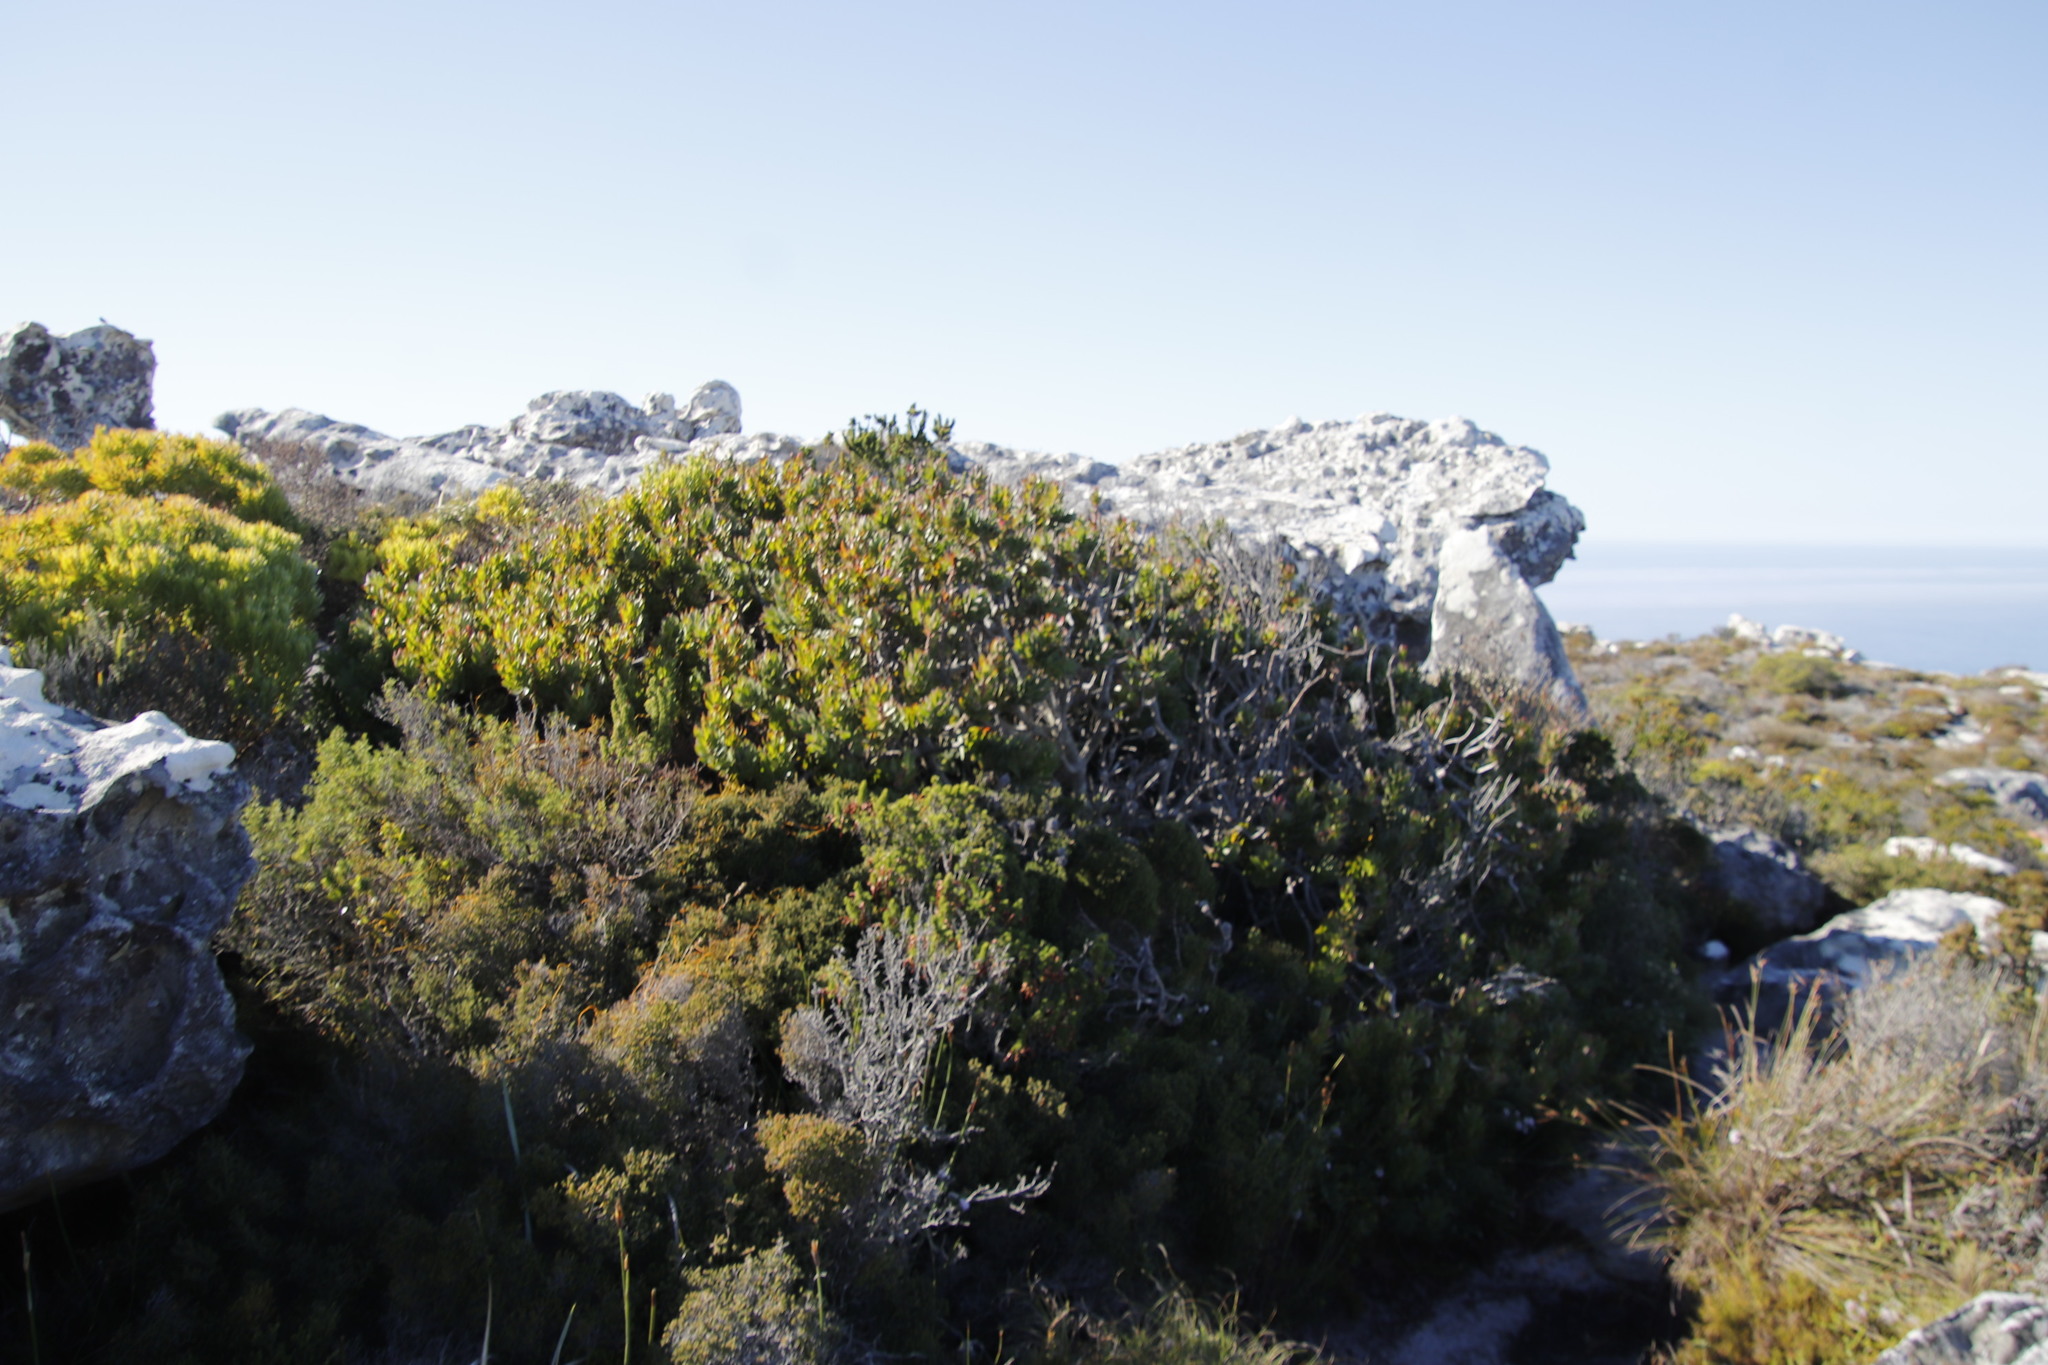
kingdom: Plantae
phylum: Tracheophyta
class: Magnoliopsida
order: Proteales
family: Proteaceae
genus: Mimetes
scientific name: Mimetes fimbriifolius
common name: Fringed bottlebrush
